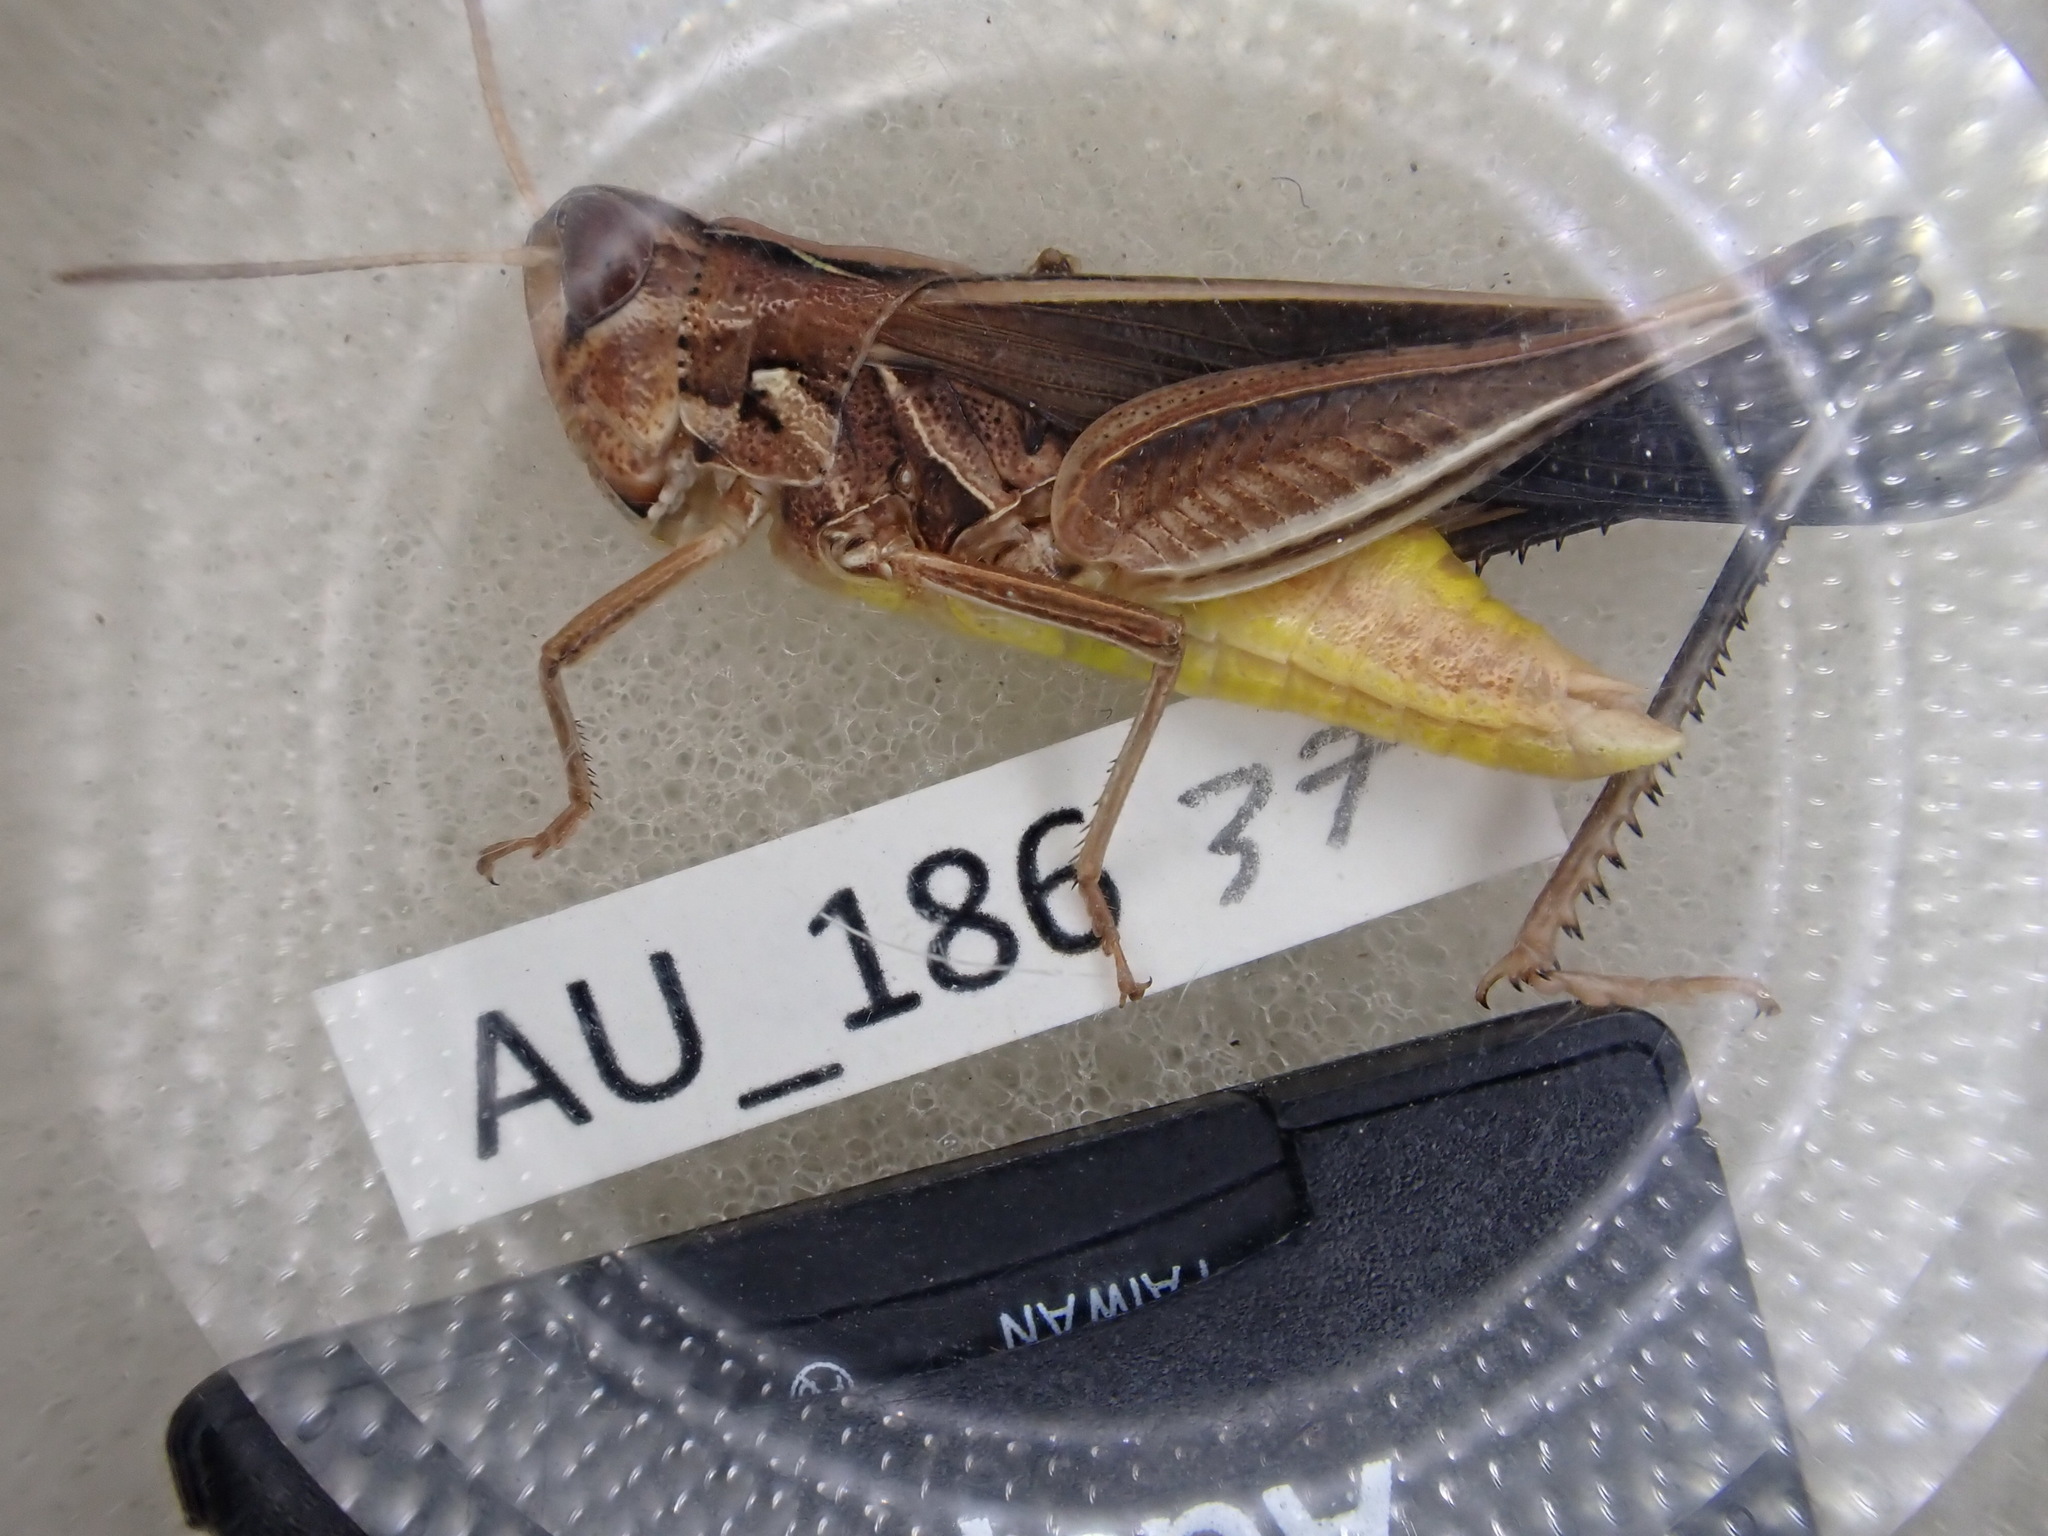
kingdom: Animalia
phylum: Arthropoda
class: Insecta
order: Orthoptera
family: Acrididae
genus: Caledia
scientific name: Caledia captiva
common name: Caledia
